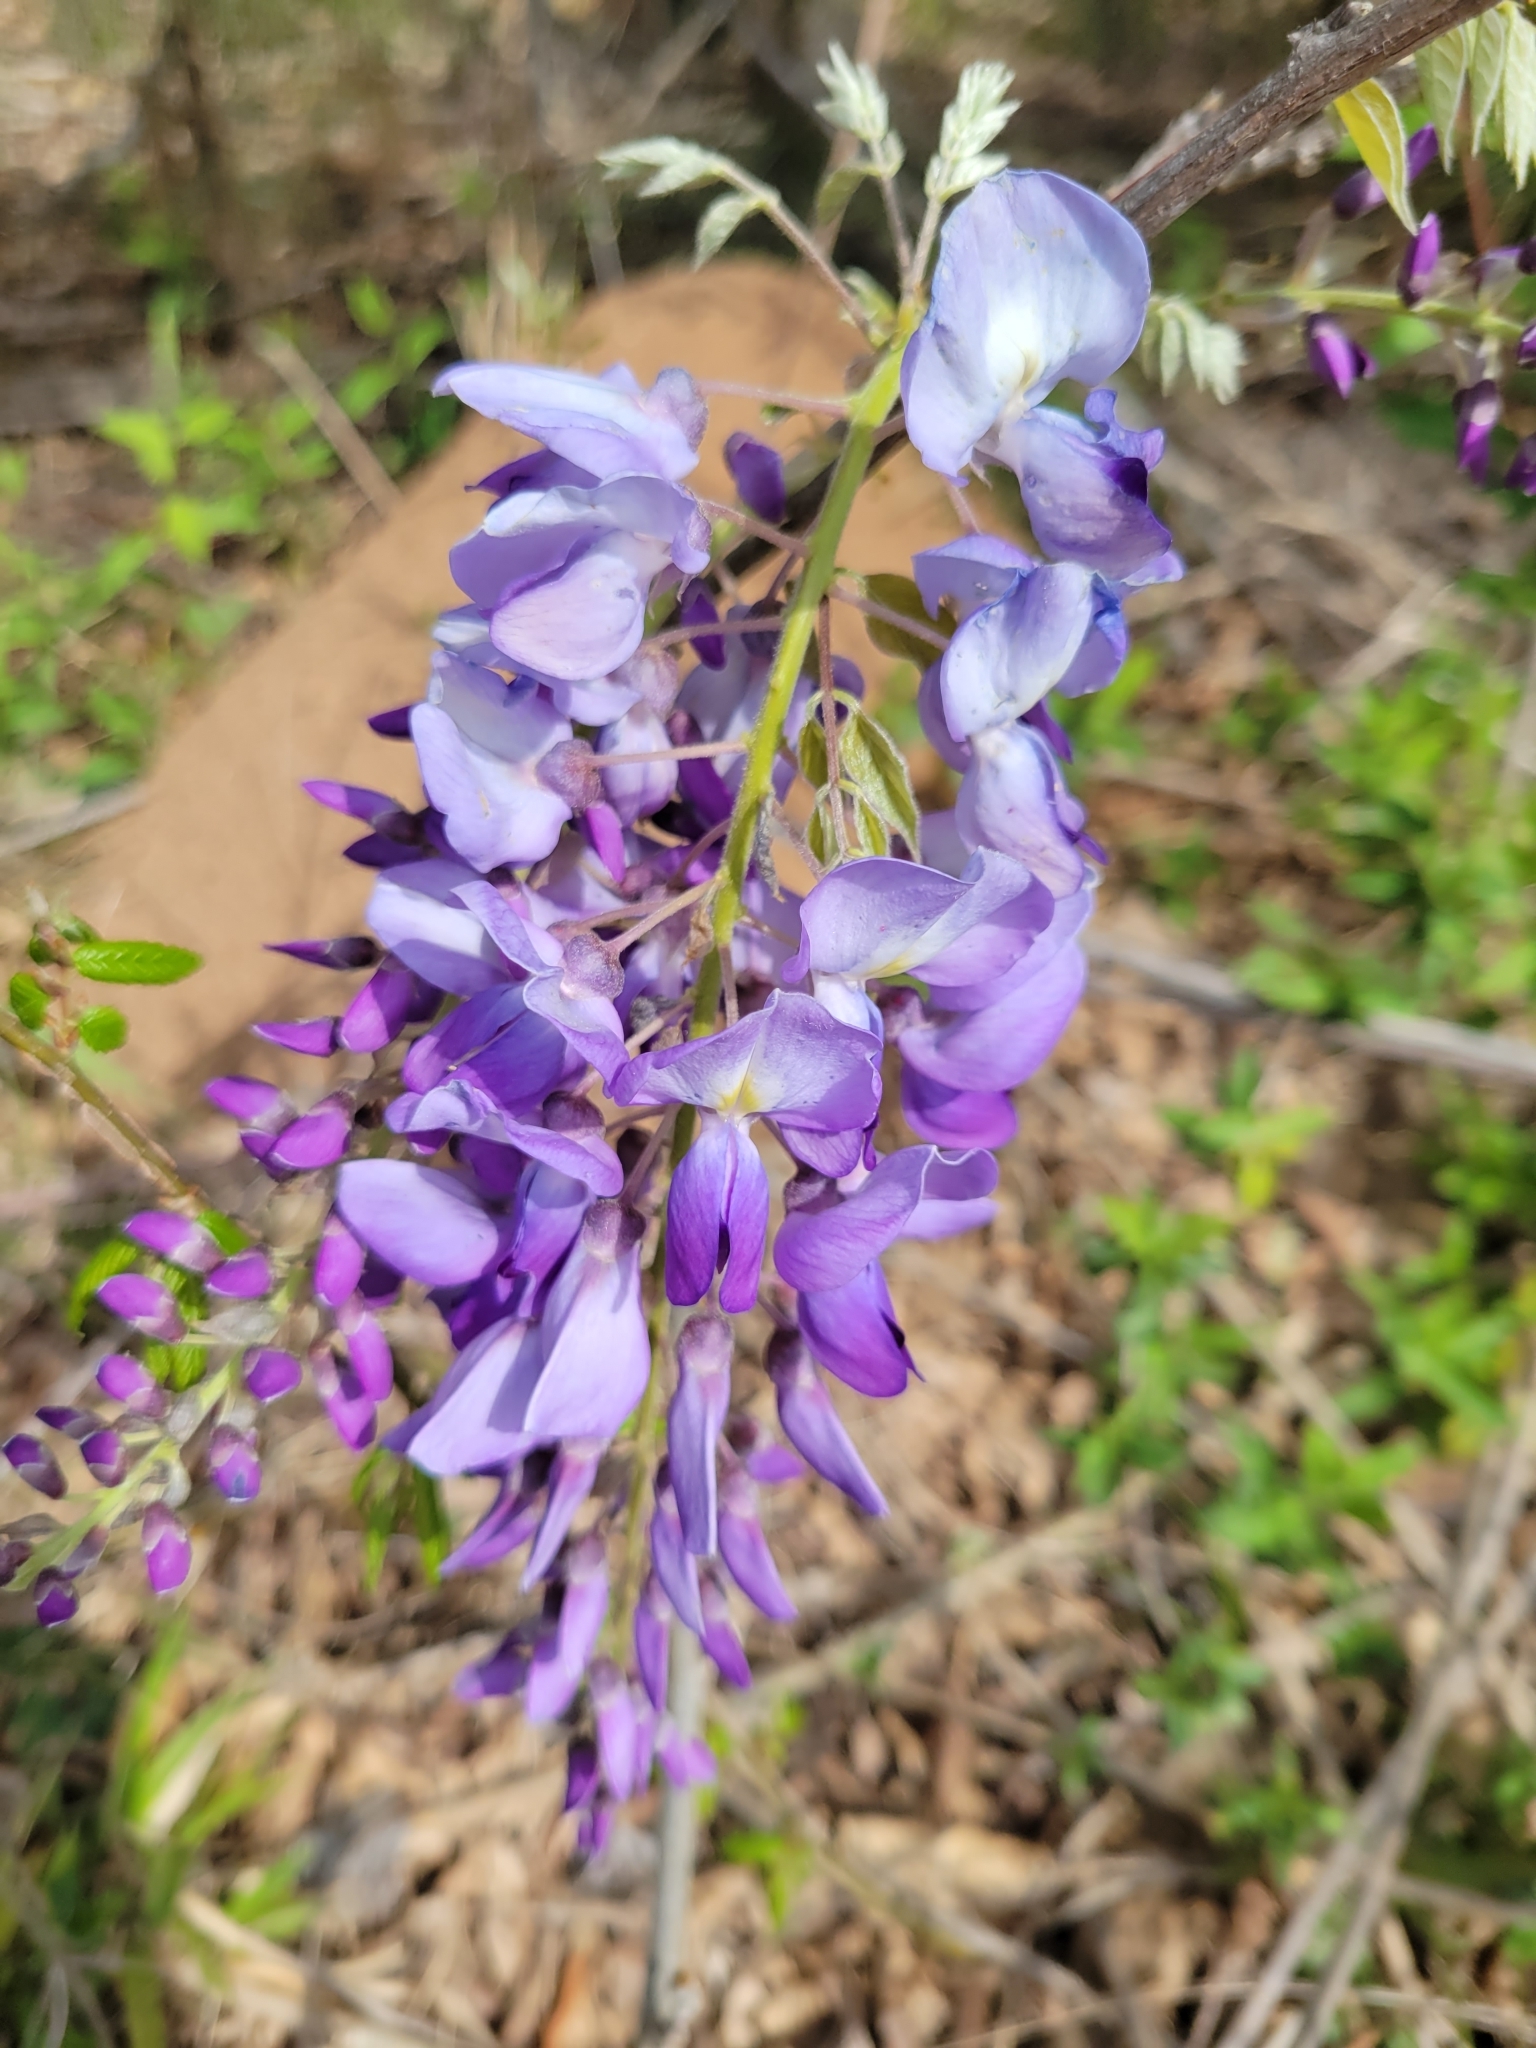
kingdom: Plantae
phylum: Tracheophyta
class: Magnoliopsida
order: Fabales
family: Fabaceae
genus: Wisteria
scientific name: Wisteria sinensis
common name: Chinese wisteria
